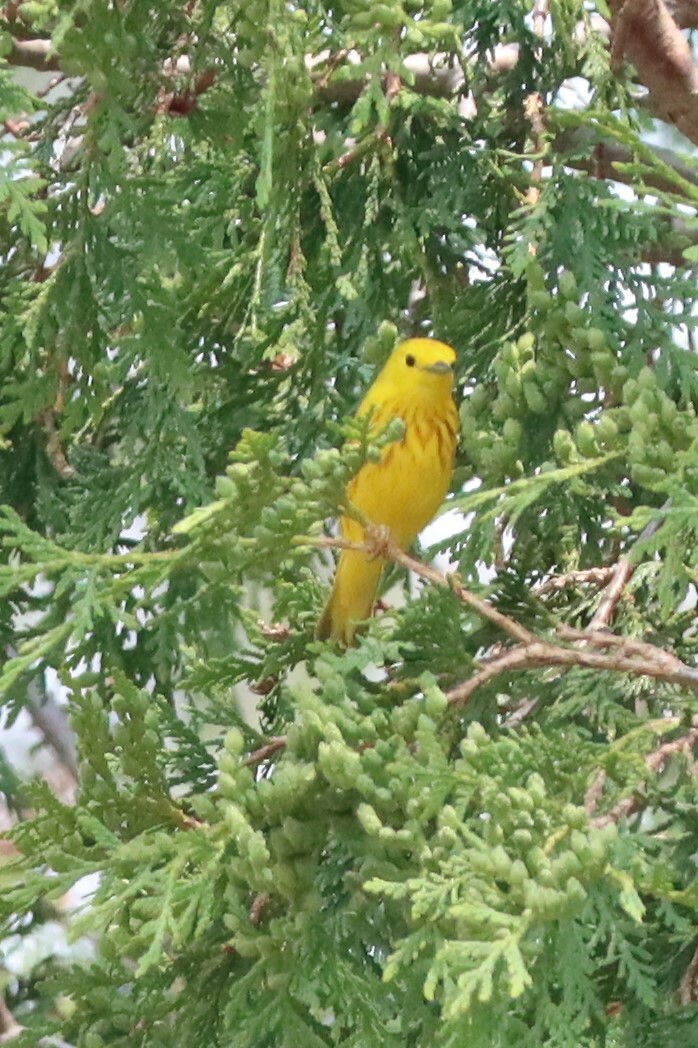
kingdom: Animalia
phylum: Chordata
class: Aves
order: Passeriformes
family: Parulidae
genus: Setophaga
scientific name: Setophaga petechia
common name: Yellow warbler
